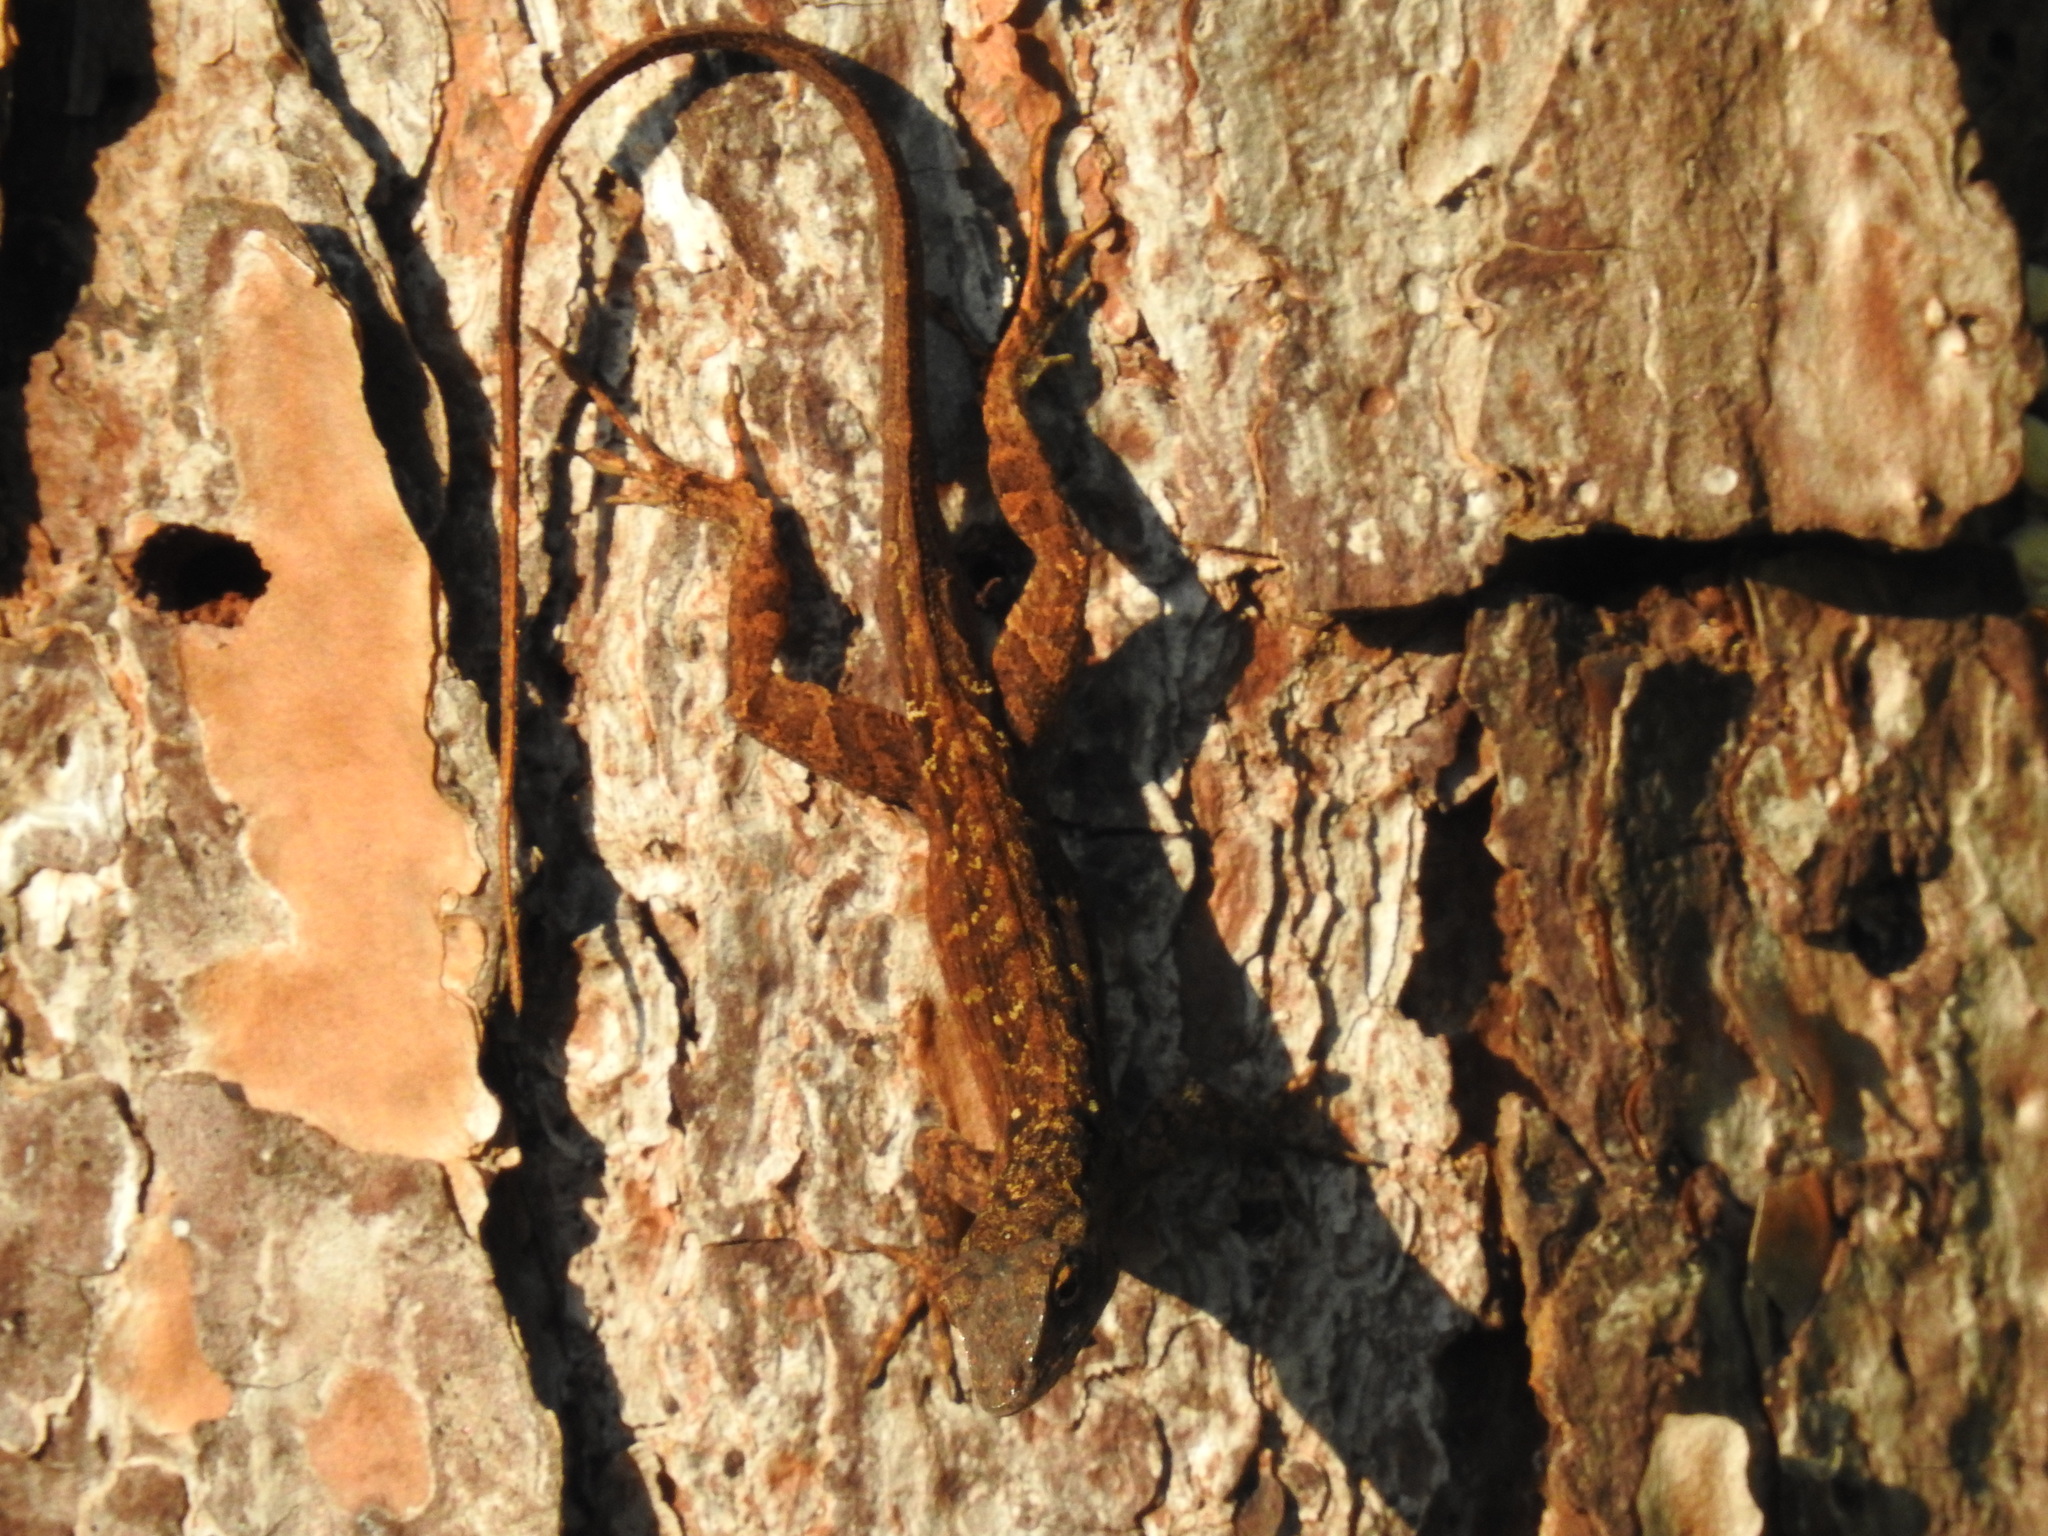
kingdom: Animalia
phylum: Chordata
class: Squamata
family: Dactyloidae
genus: Anolis
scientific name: Anolis sagrei
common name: Brown anole
